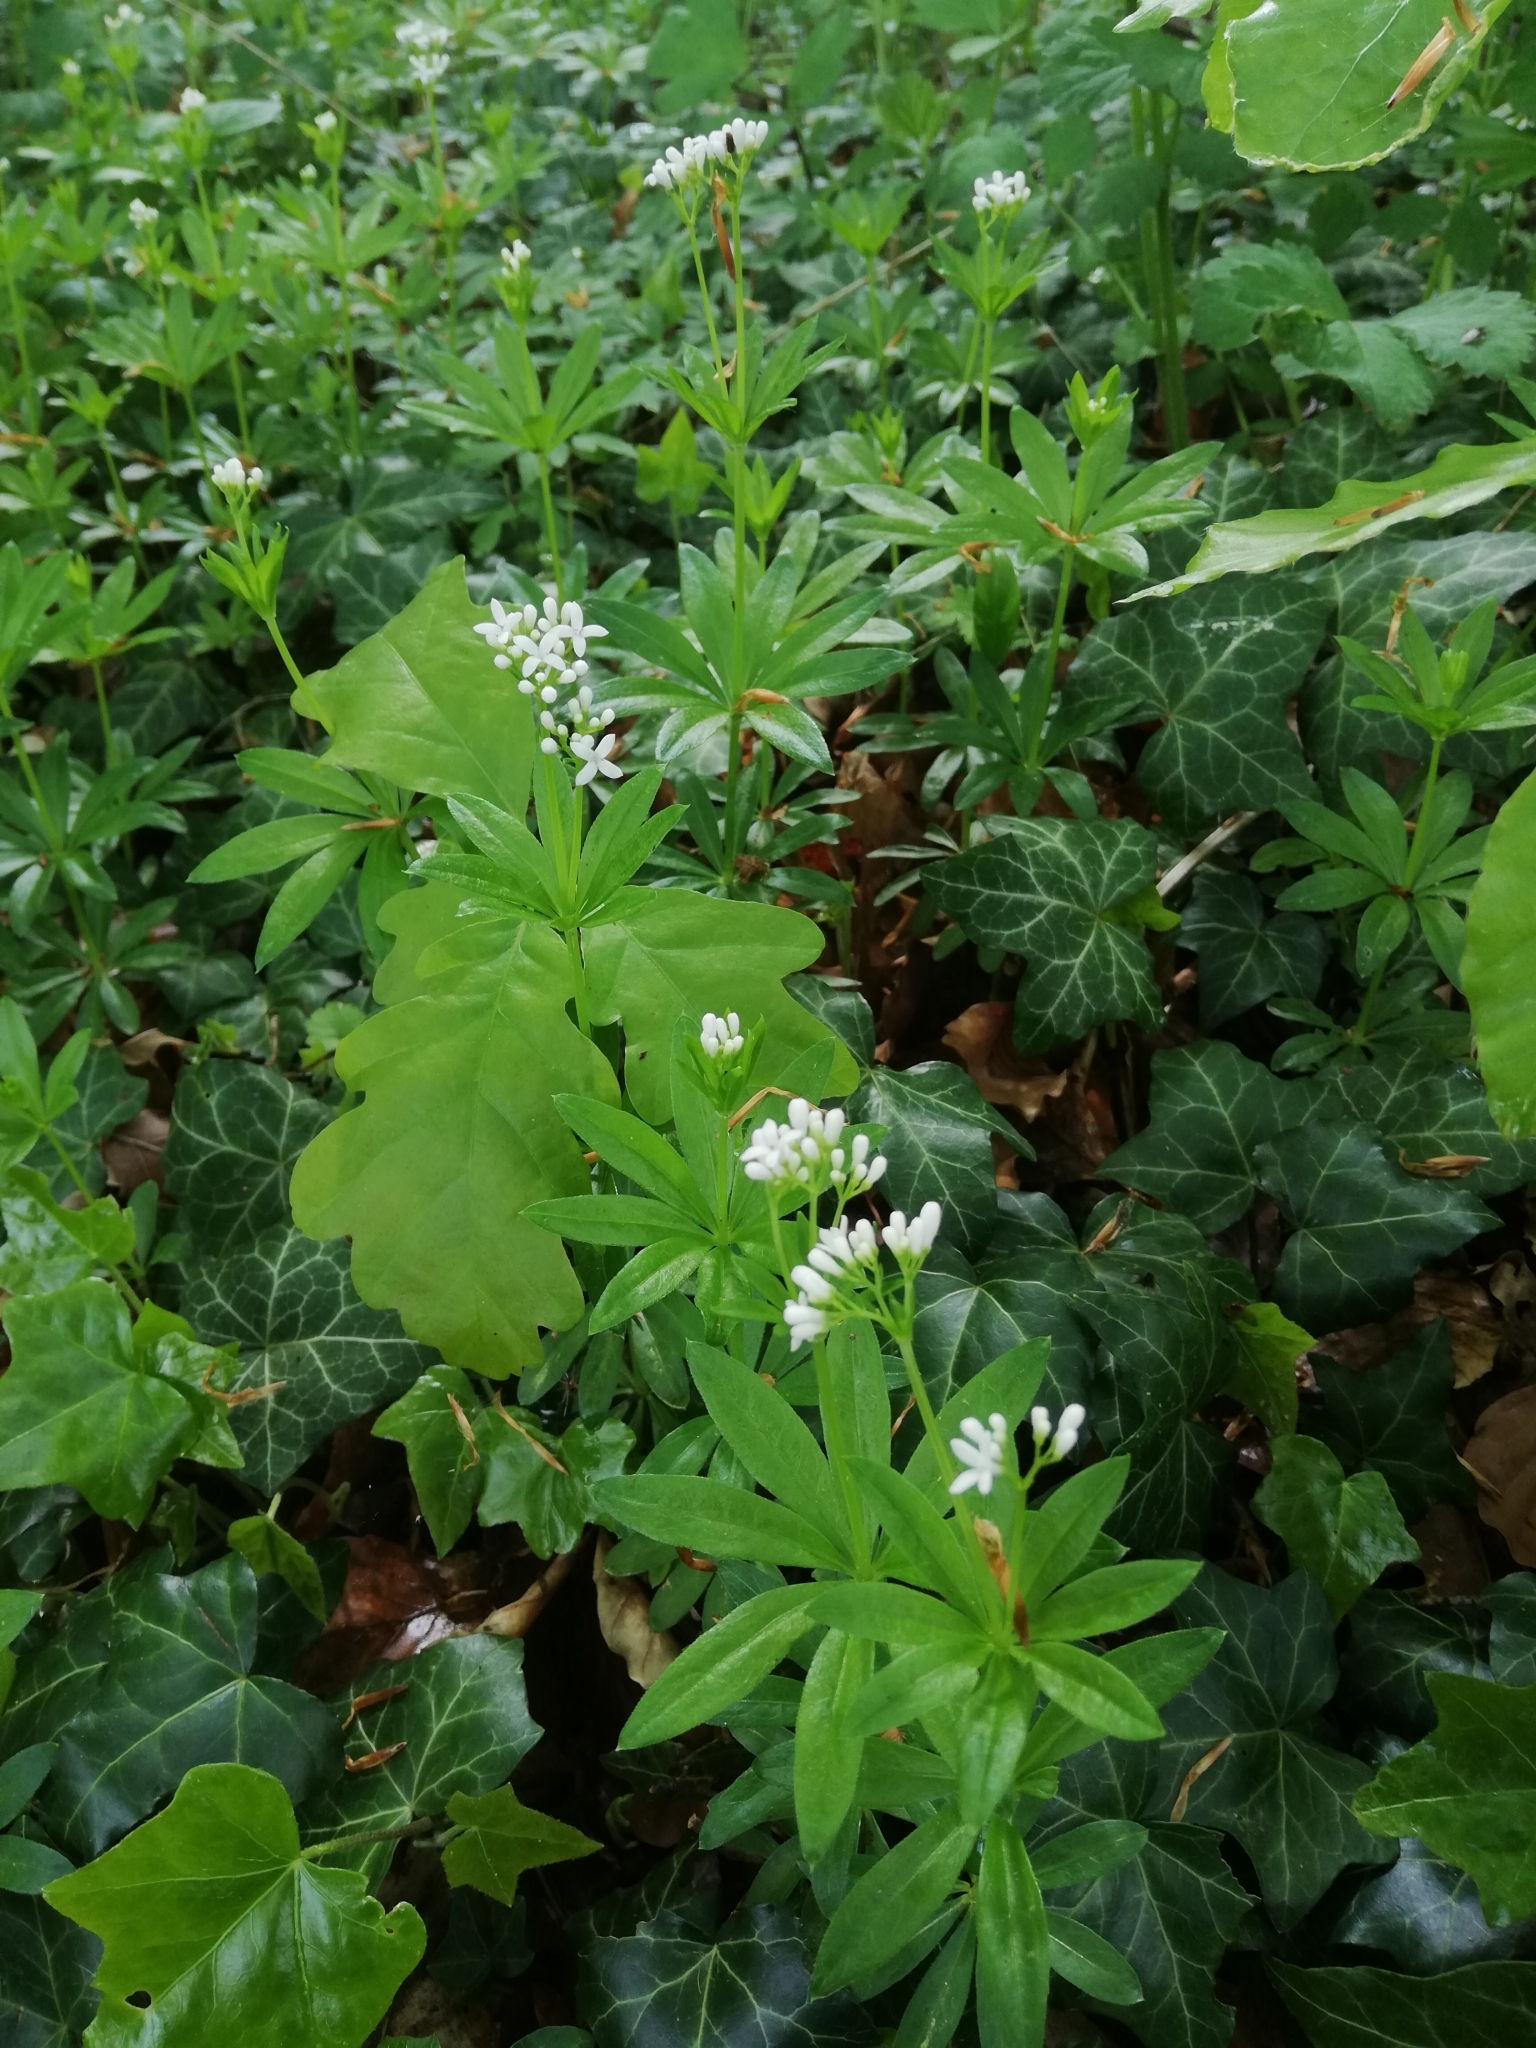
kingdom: Plantae
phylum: Tracheophyta
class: Magnoliopsida
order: Gentianales
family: Rubiaceae
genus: Galium
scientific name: Galium odoratum
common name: Sweet woodruff
